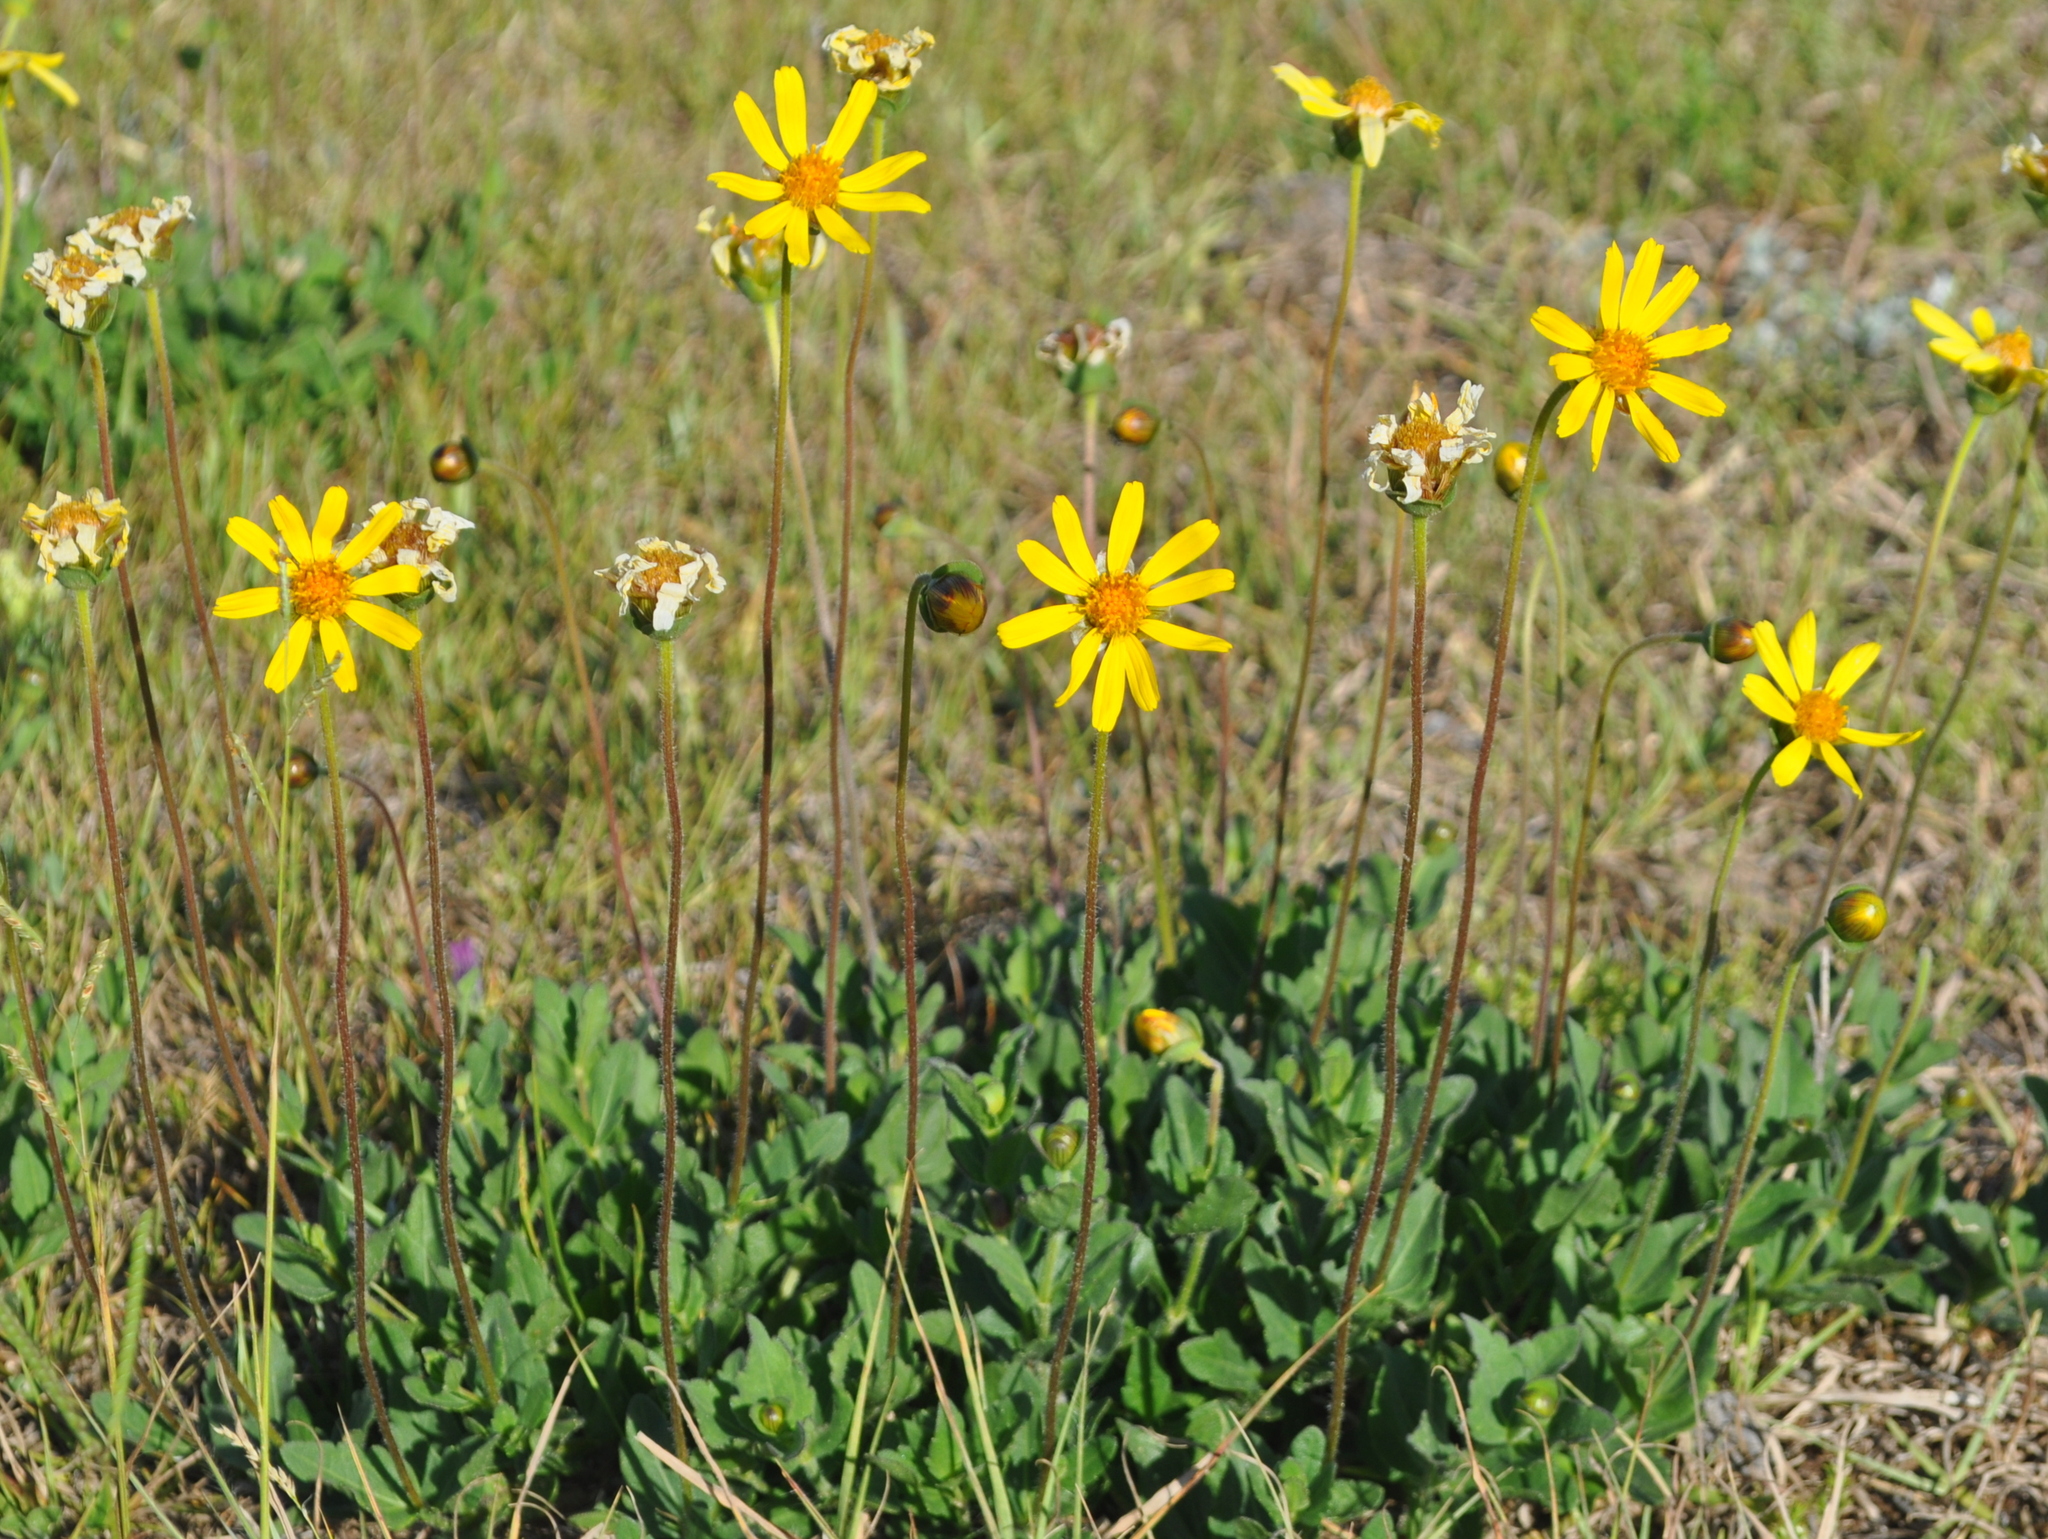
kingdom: Plantae
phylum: Tracheophyta
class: Magnoliopsida
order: Asterales
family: Asteraceae
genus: Calea
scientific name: Calea uniflora
